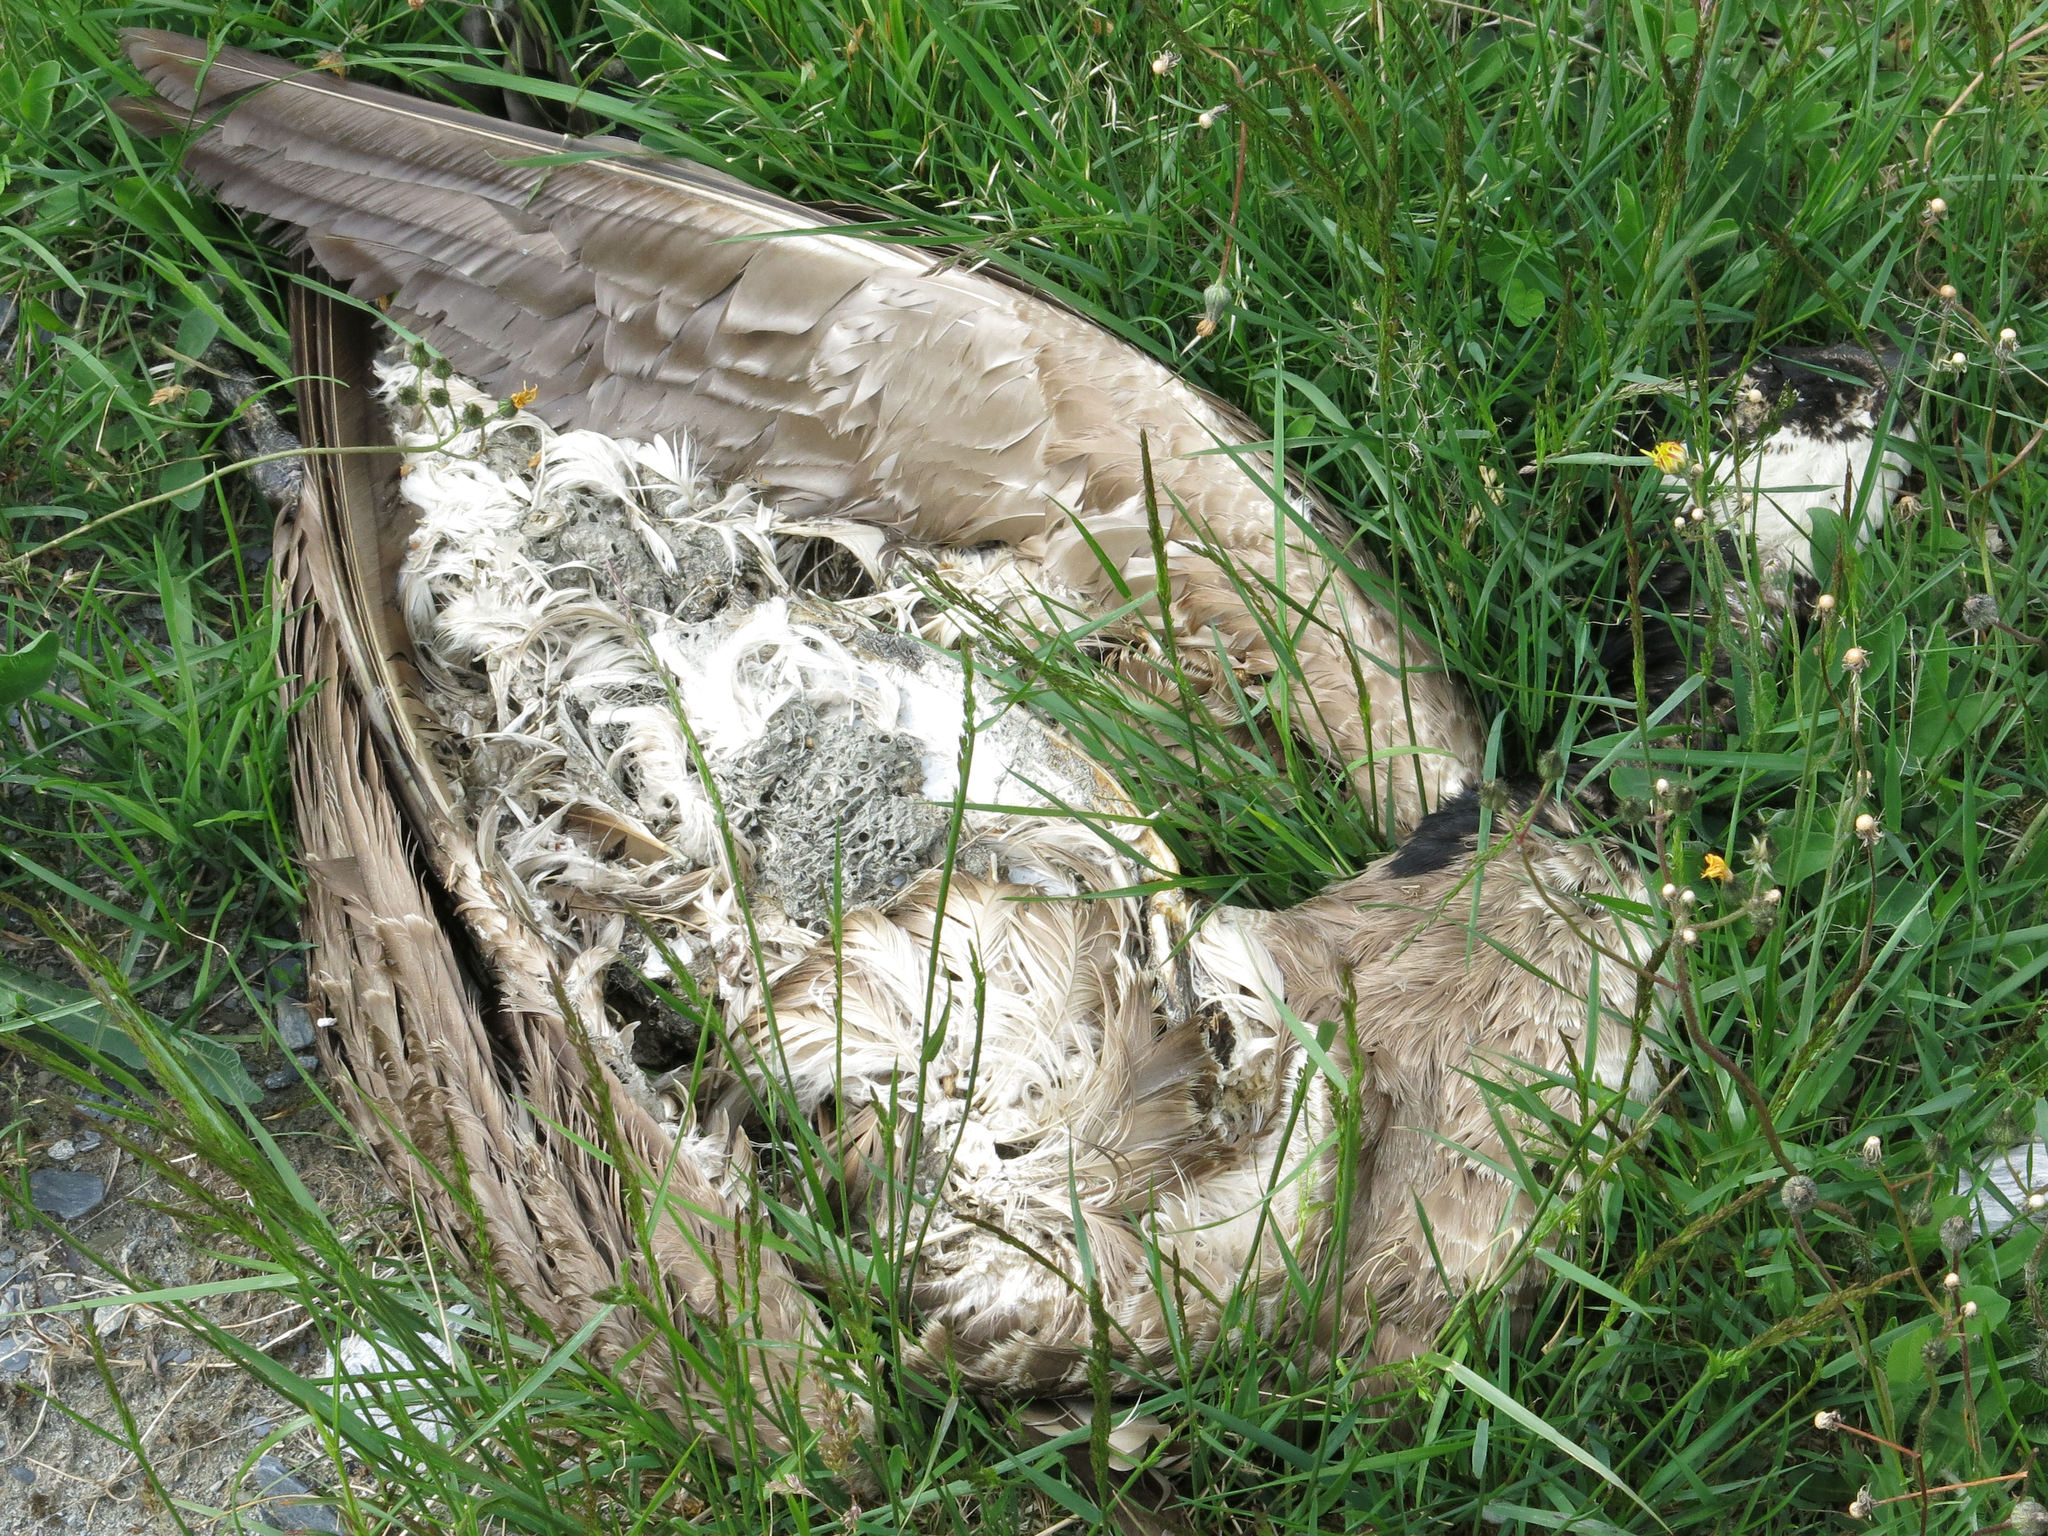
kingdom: Animalia
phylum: Chordata
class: Aves
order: Anseriformes
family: Anatidae
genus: Branta
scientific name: Branta canadensis
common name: Canada goose
